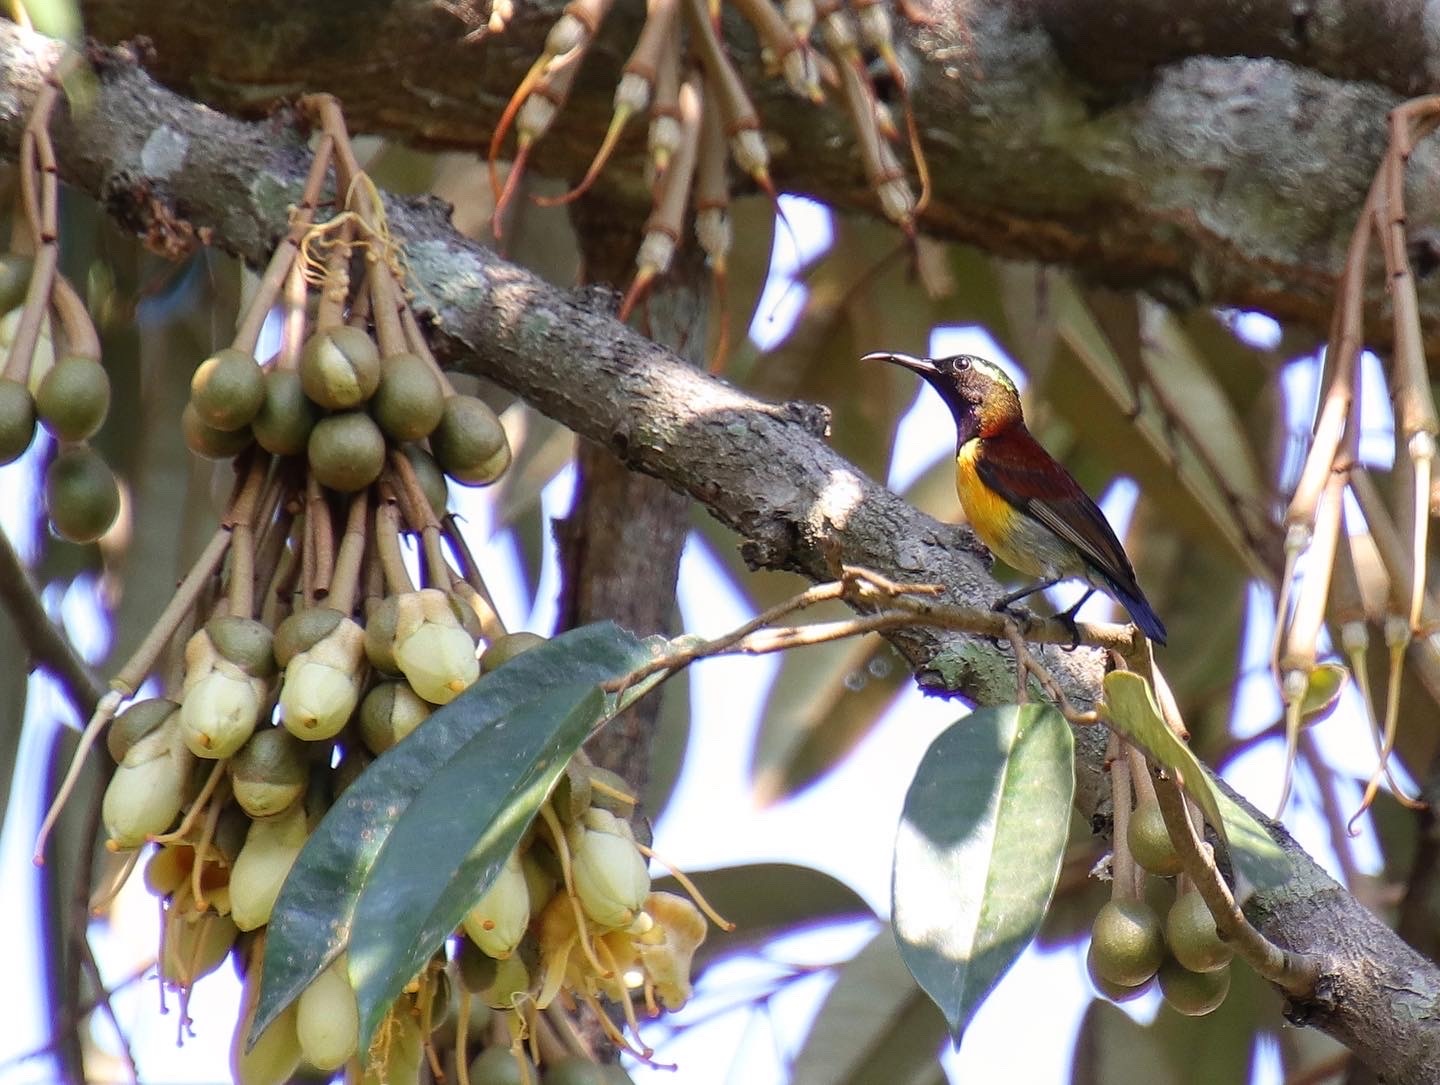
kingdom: Animalia
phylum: Chordata
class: Aves
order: Passeriformes
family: Nectariniidae
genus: Leptocoma
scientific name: Leptocoma sperata
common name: Purple-throated sunbird
